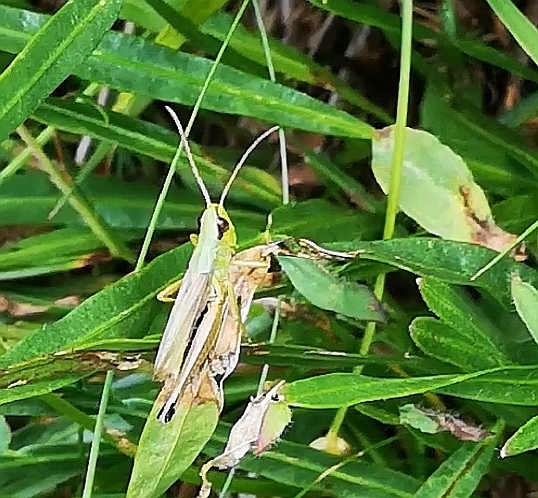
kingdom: Animalia
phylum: Arthropoda
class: Insecta
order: Orthoptera
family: Acrididae
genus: Pseudochorthippus
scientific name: Pseudochorthippus parallelus
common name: Meadow grasshopper
